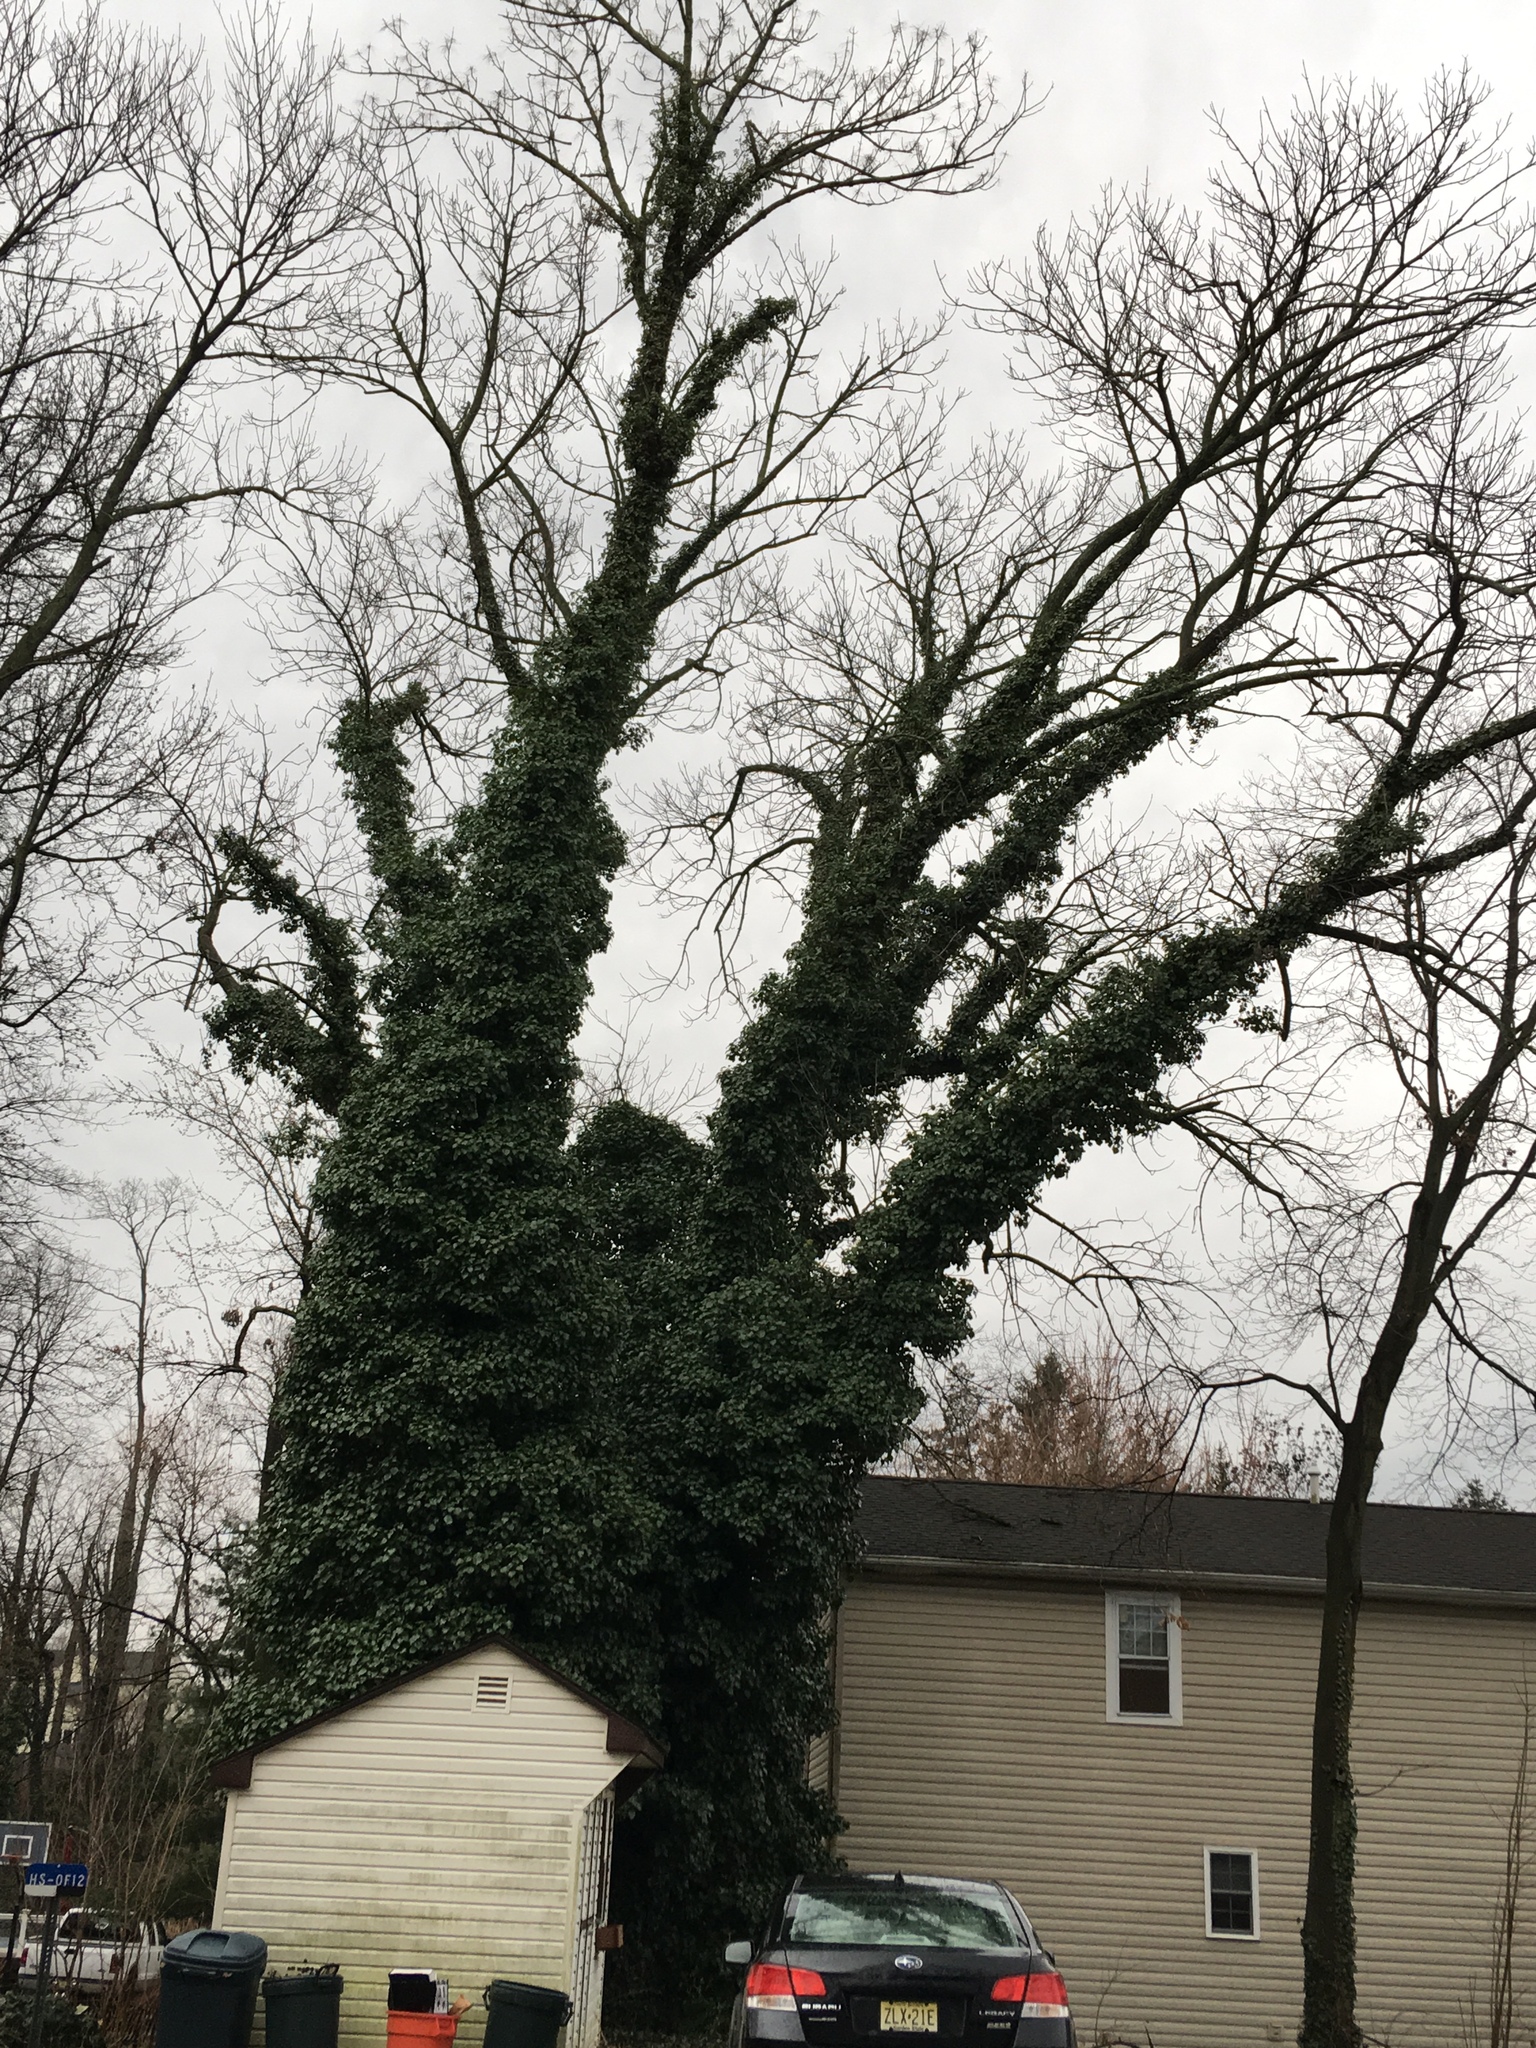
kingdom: Plantae
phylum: Tracheophyta
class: Magnoliopsida
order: Apiales
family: Araliaceae
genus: Hedera
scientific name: Hedera helix
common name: Ivy
